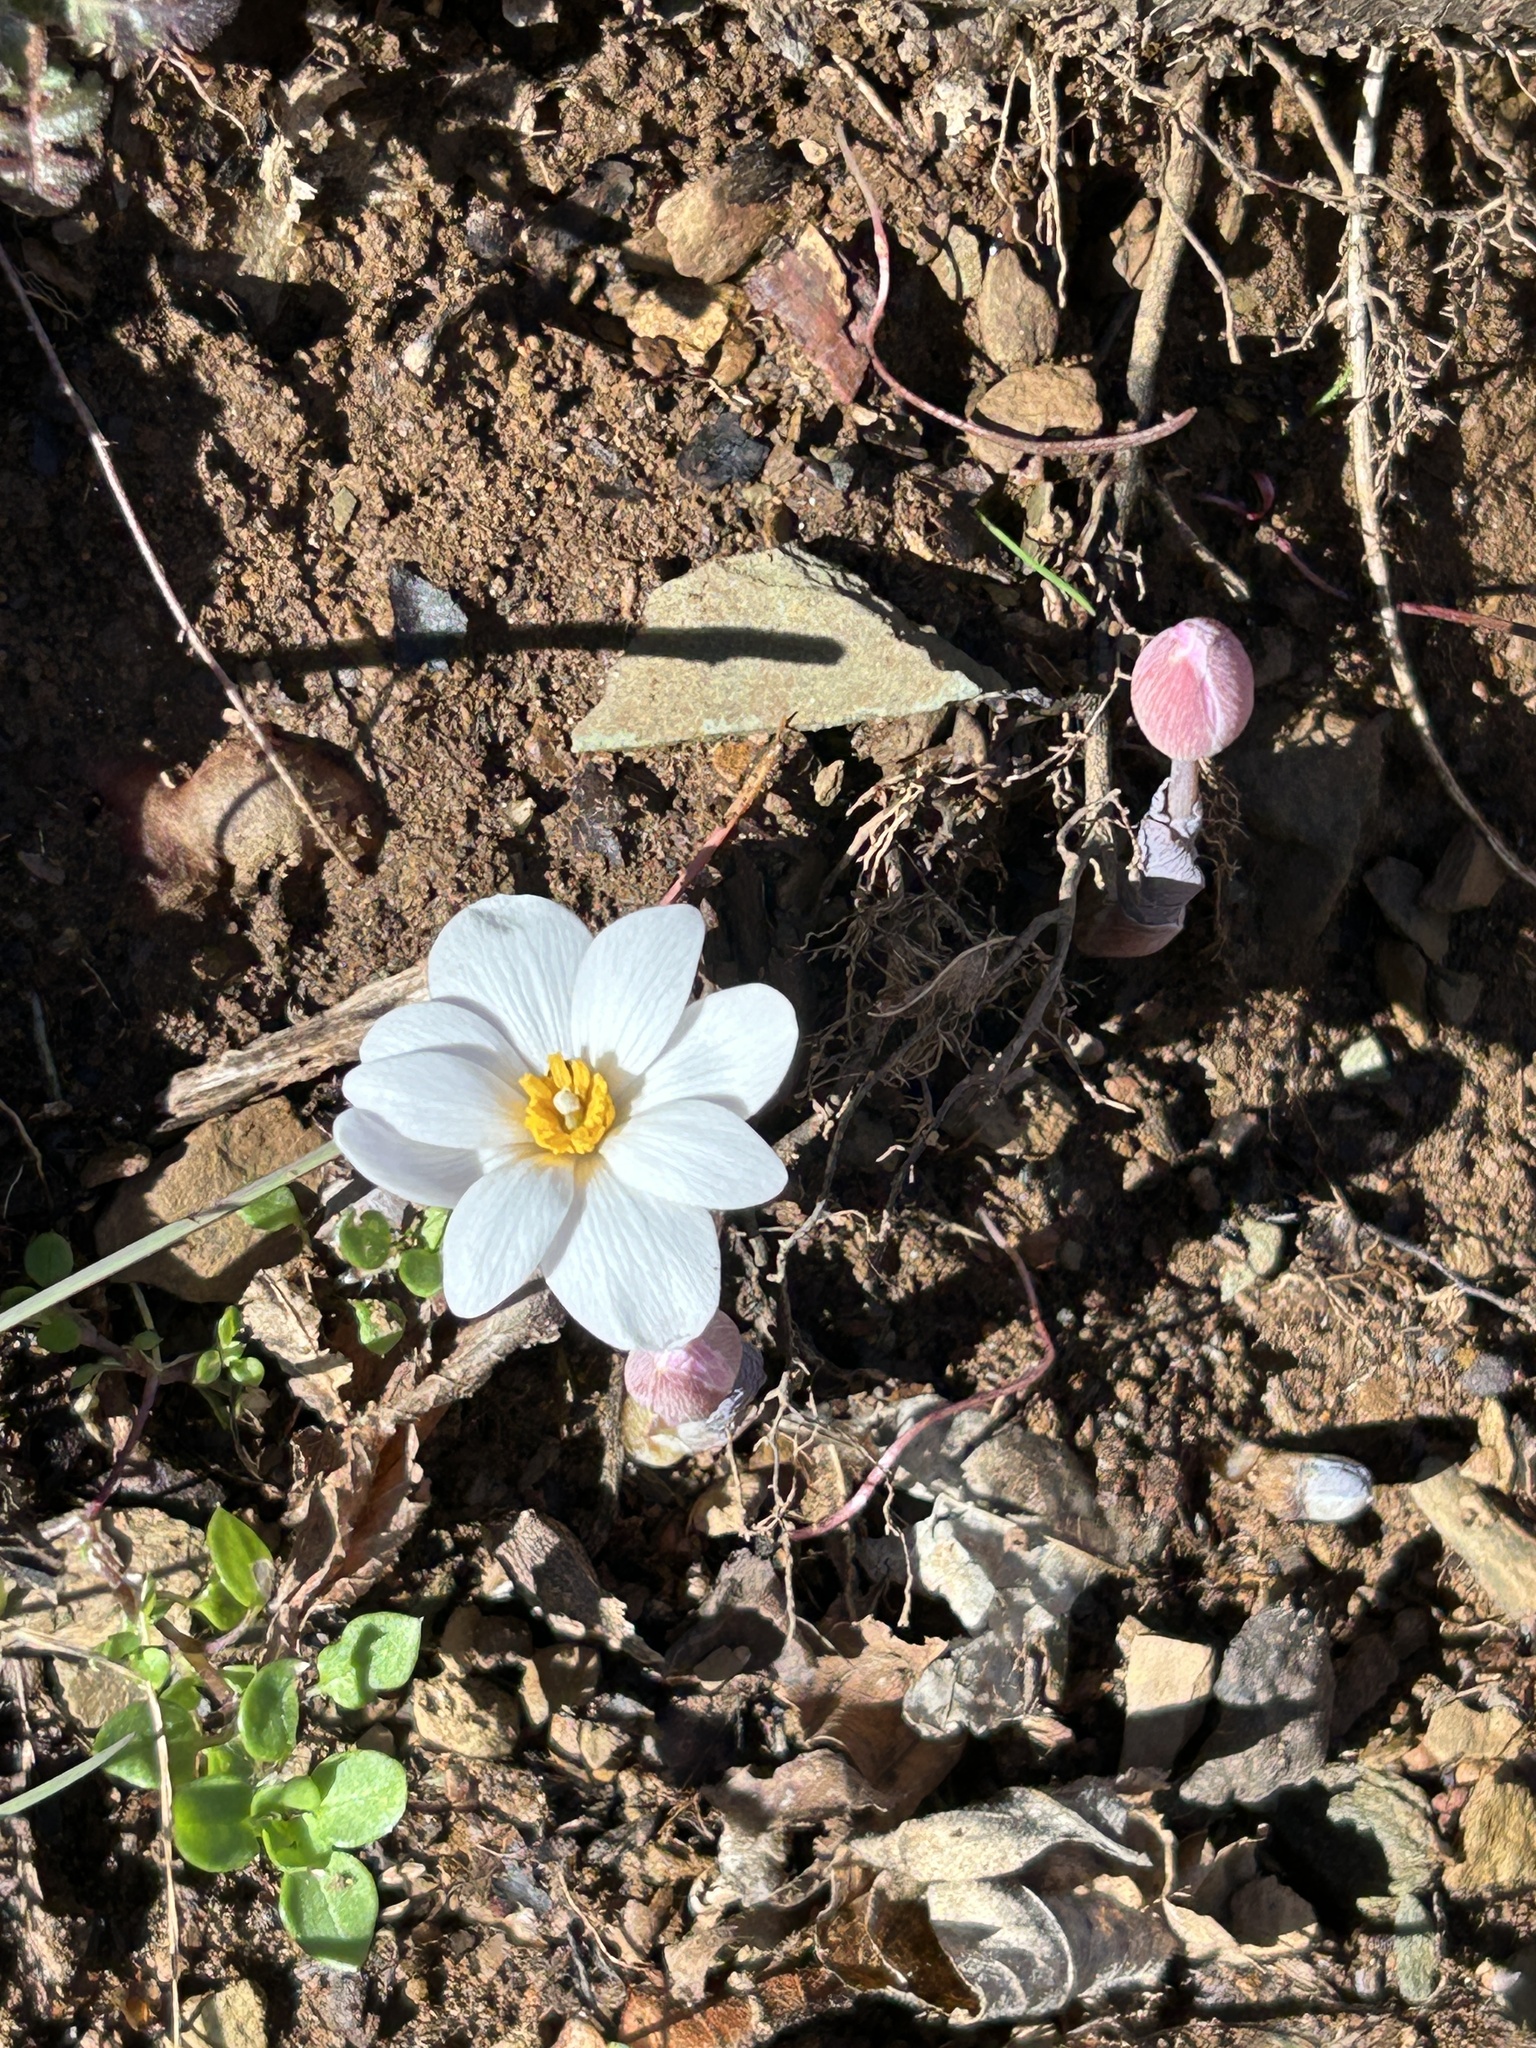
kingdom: Plantae
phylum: Tracheophyta
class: Magnoliopsida
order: Ranunculales
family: Papaveraceae
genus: Sanguinaria
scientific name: Sanguinaria canadensis
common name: Bloodroot
